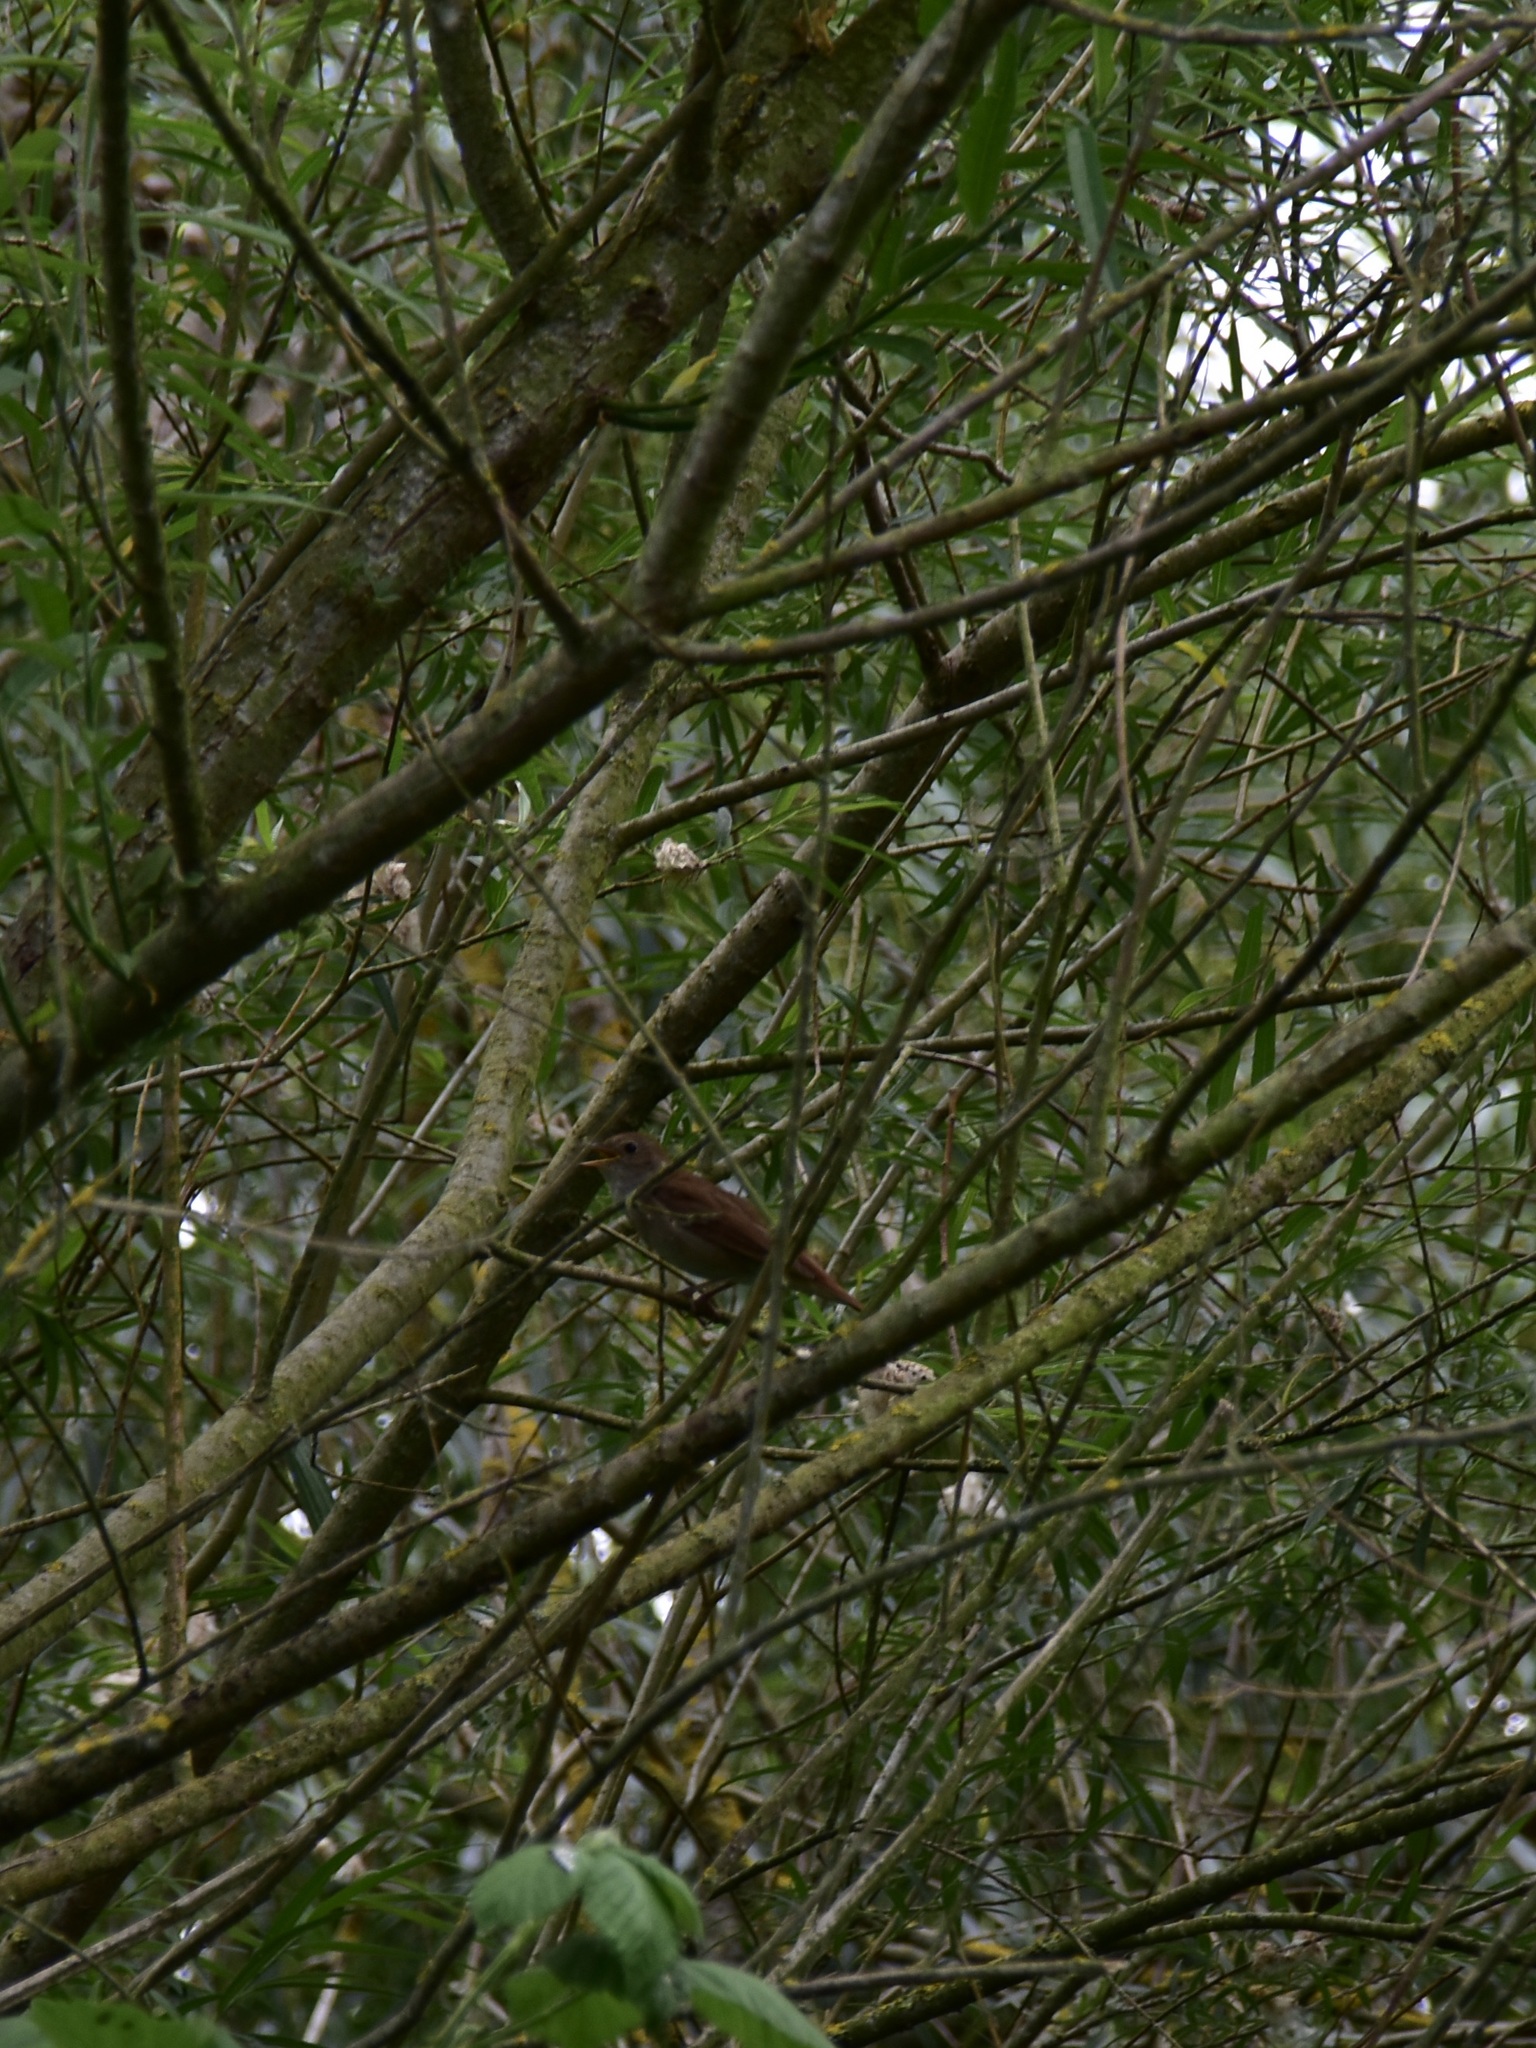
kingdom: Animalia
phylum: Chordata
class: Aves
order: Passeriformes
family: Muscicapidae
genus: Luscinia
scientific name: Luscinia megarhynchos
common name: Common nightingale
